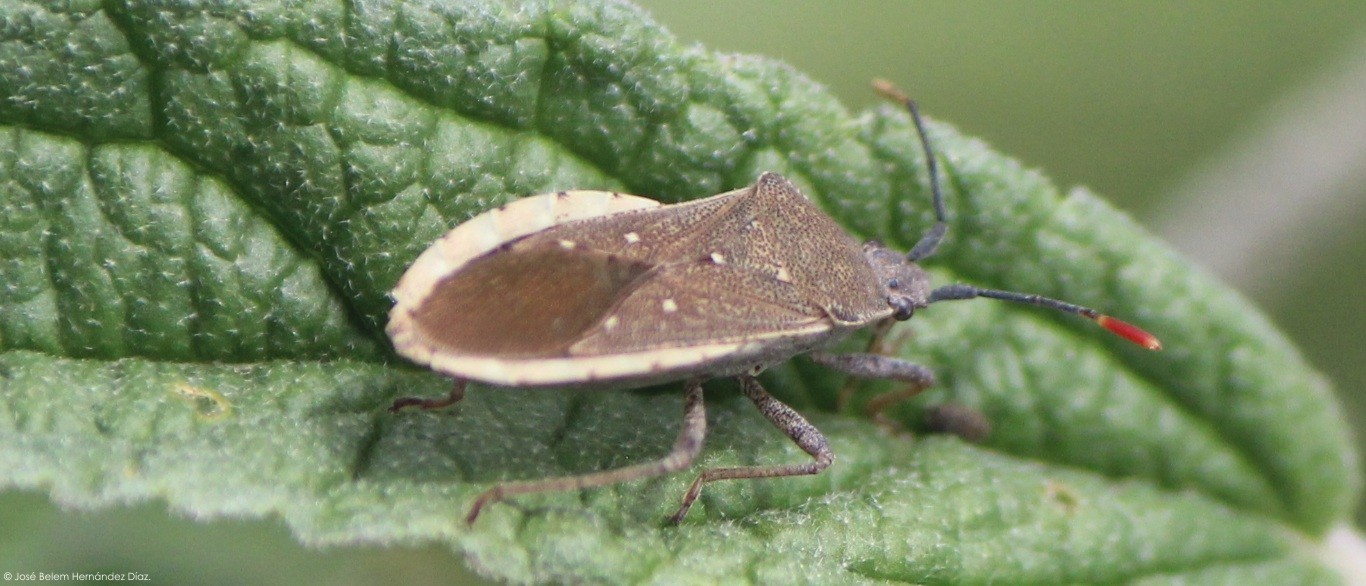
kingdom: Animalia
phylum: Arthropoda
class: Insecta
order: Hemiptera
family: Coreidae
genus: Catorhintha
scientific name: Catorhintha apicalis
